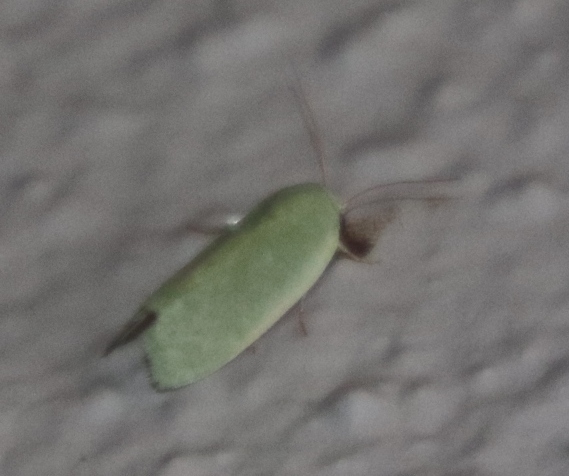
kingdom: Animalia
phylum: Arthropoda
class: Insecta
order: Lepidoptera
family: Nolidae
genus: Earias
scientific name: Earias insulana
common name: Egyptian bollworm
